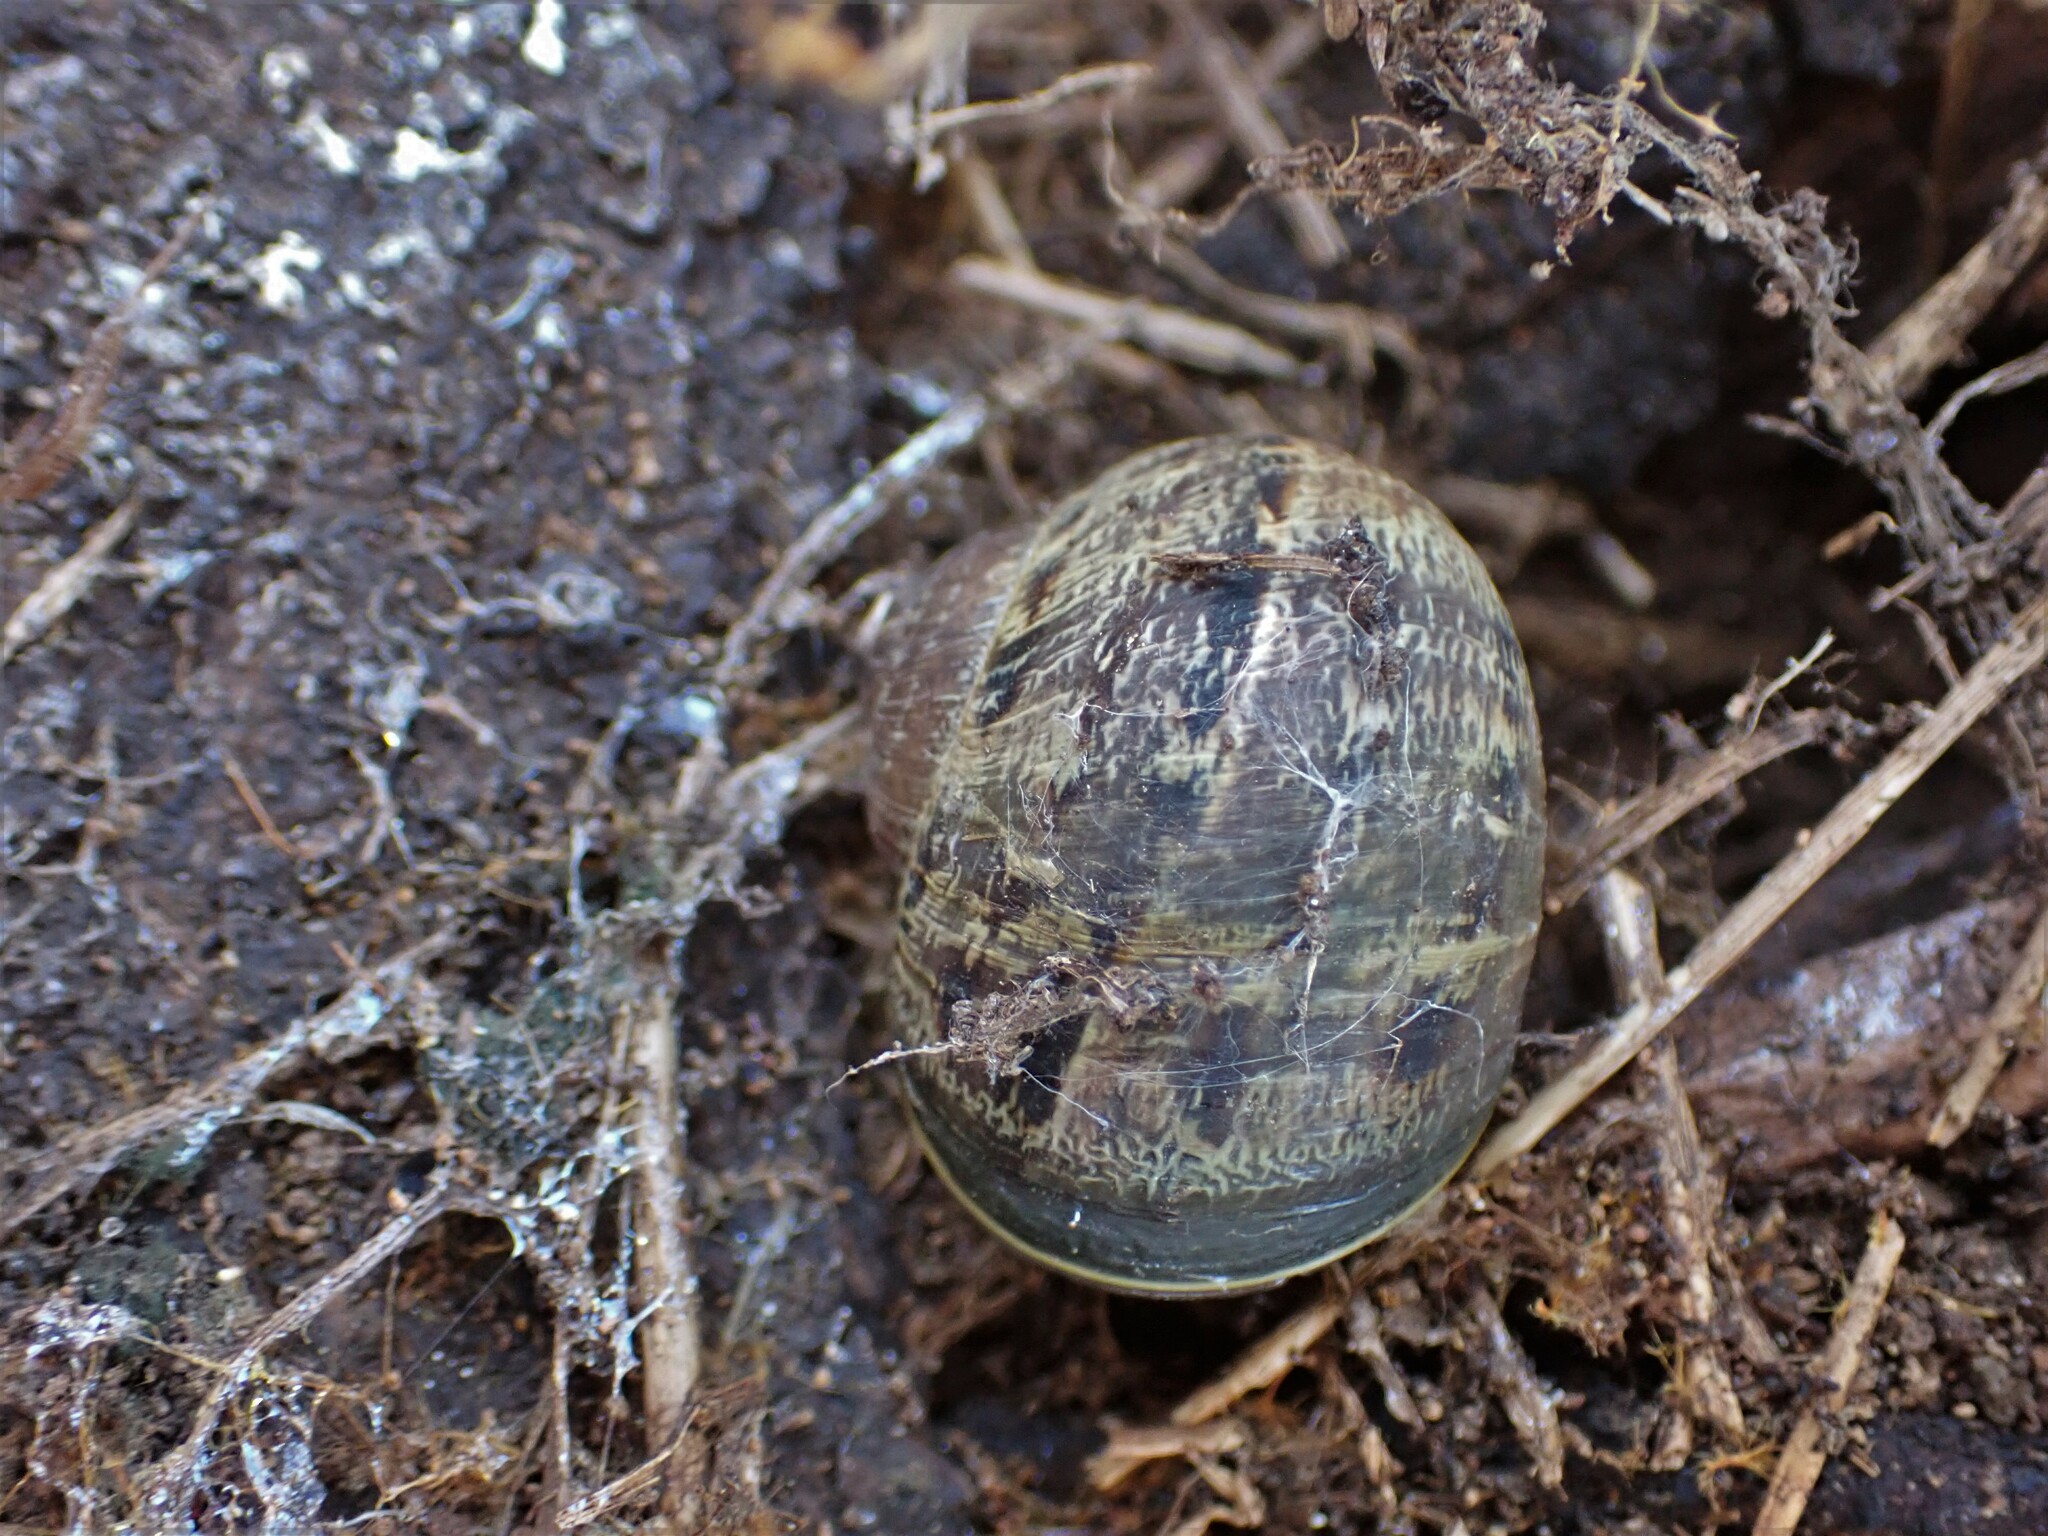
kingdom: Animalia
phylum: Mollusca
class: Gastropoda
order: Stylommatophora
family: Helicidae
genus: Cornu
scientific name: Cornu aspersum
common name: Brown garden snail
